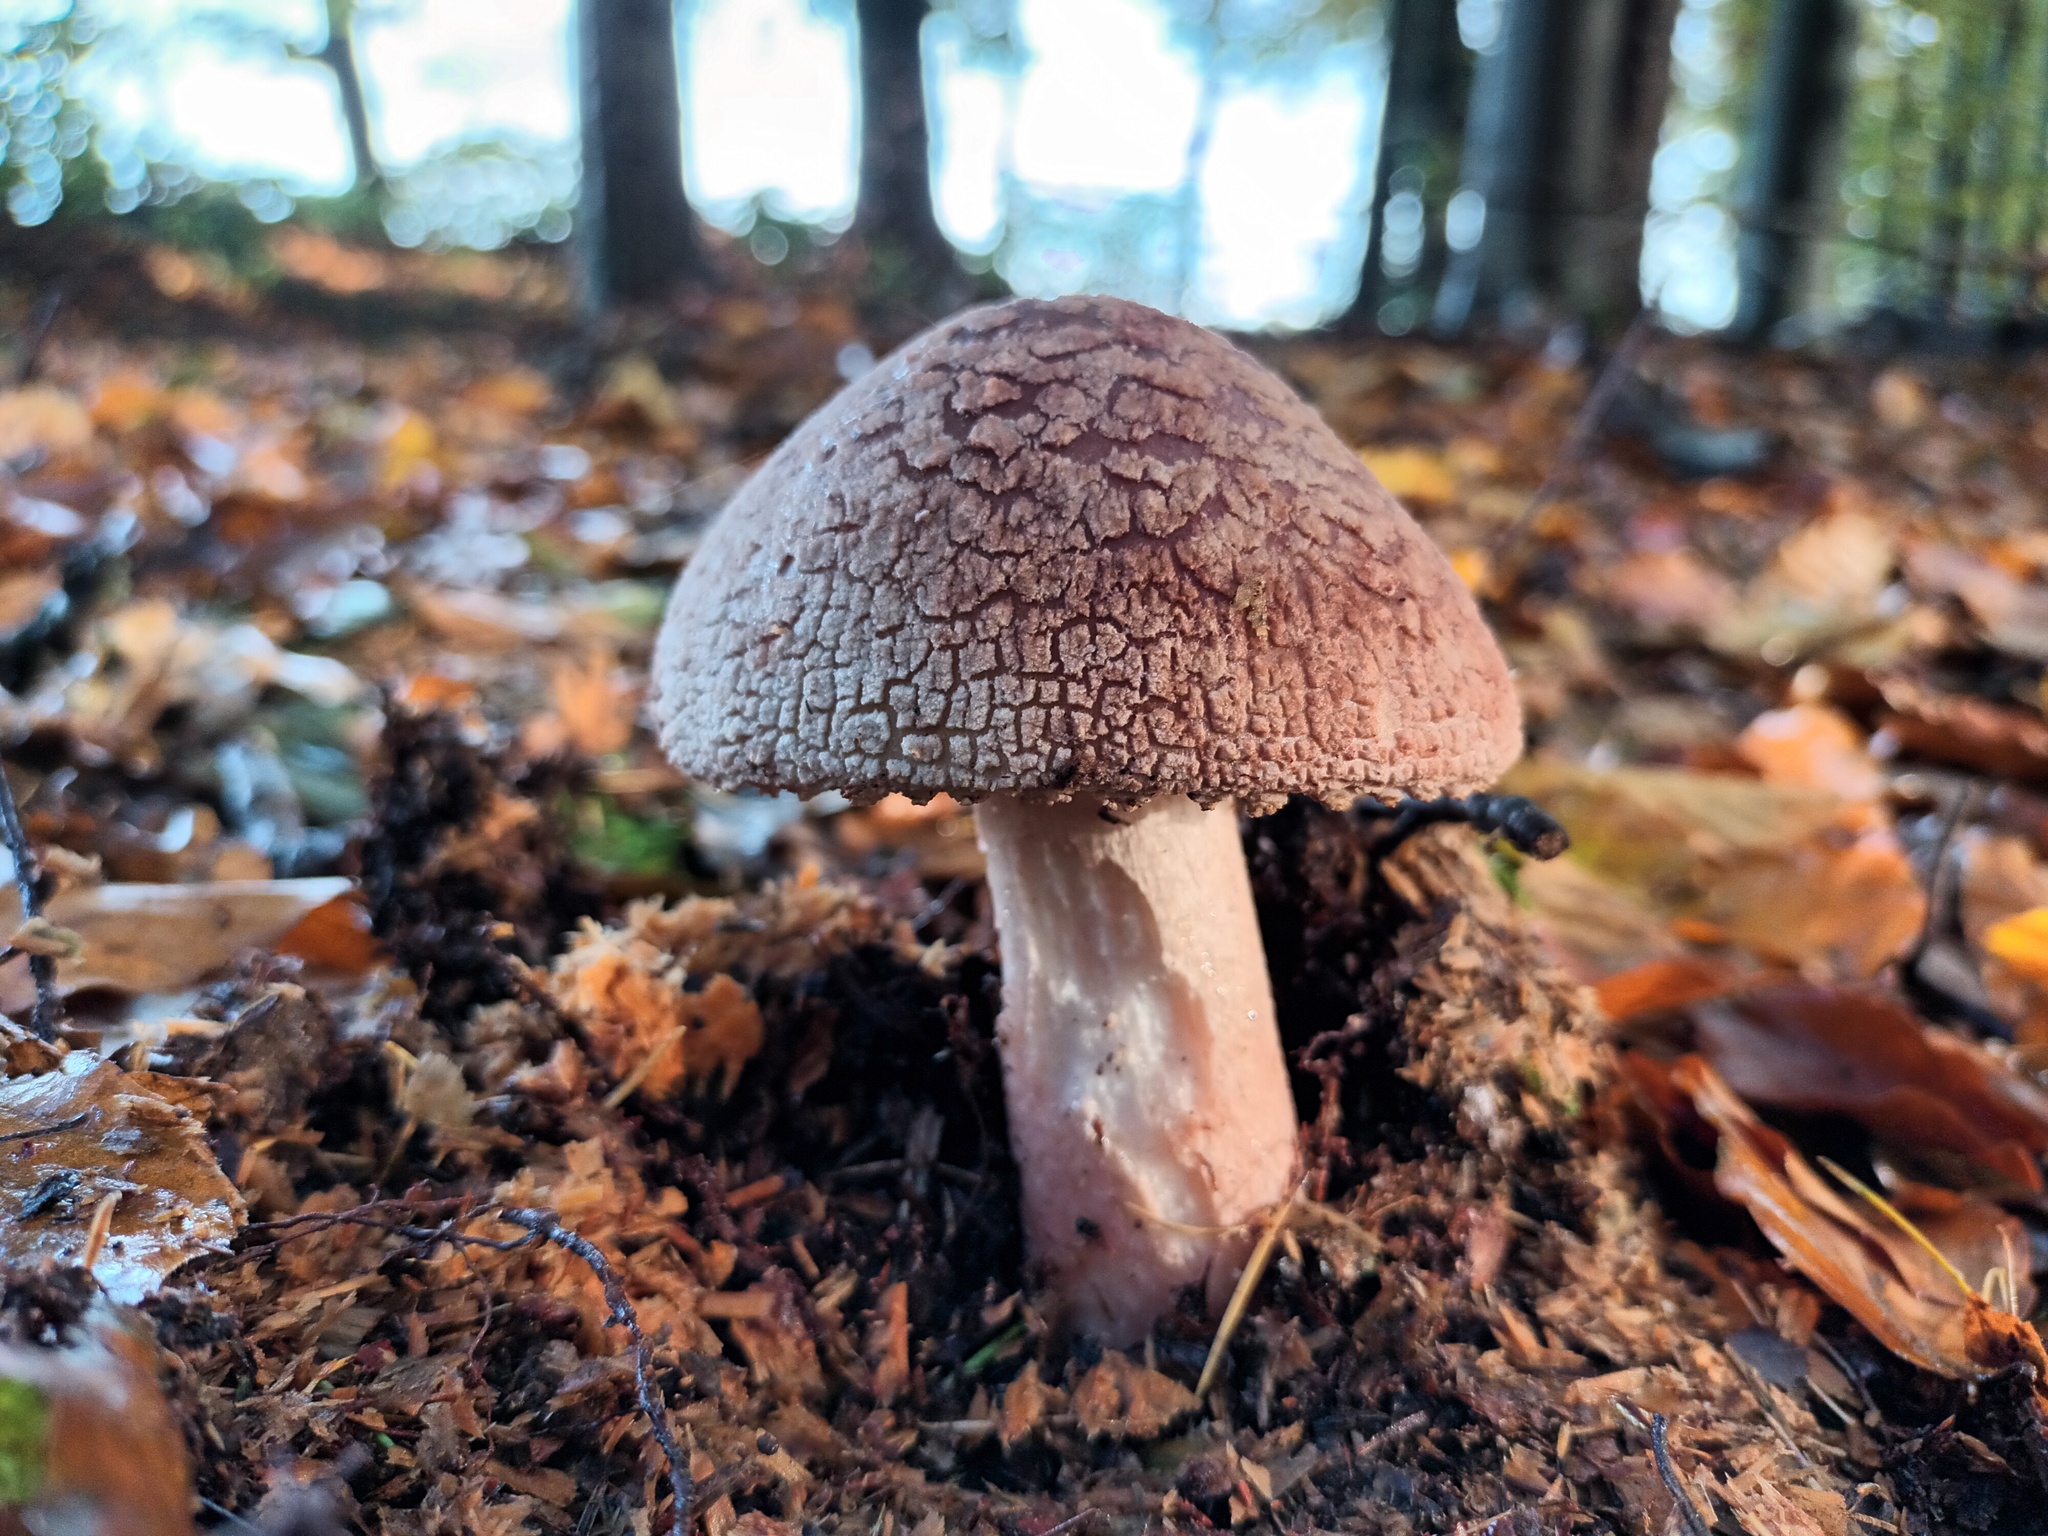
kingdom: Fungi
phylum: Basidiomycota
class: Agaricomycetes
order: Agaricales
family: Amanitaceae
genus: Amanita
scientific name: Amanita rubescens
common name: Blusher
